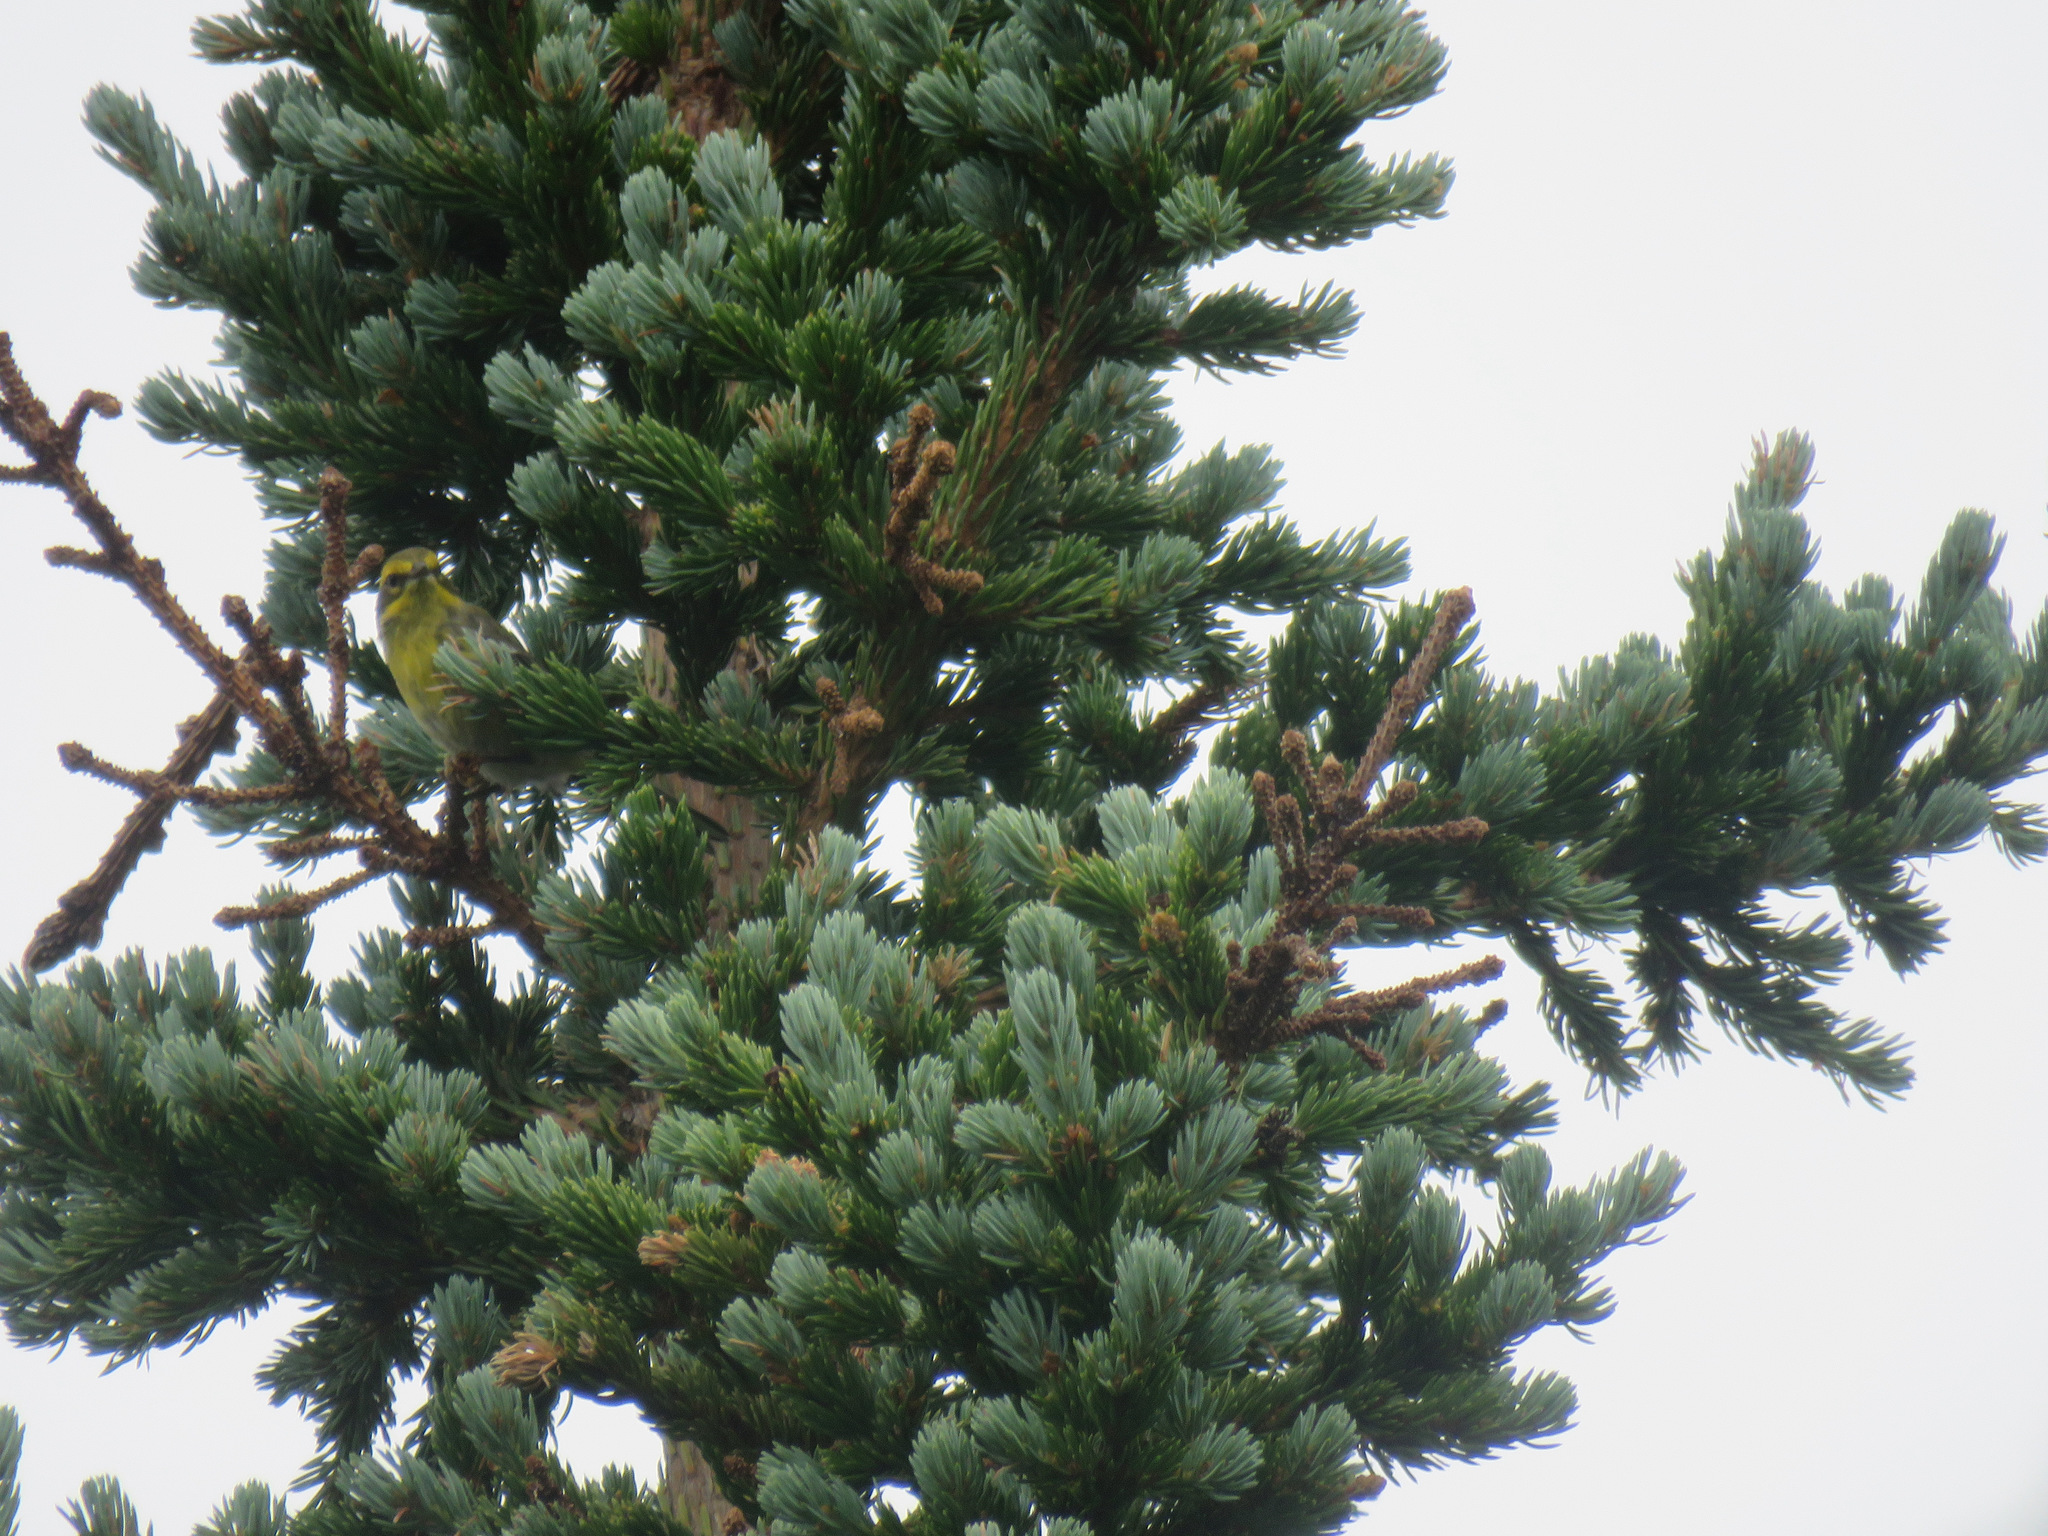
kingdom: Animalia
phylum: Chordata
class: Aves
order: Passeriformes
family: Parulidae
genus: Setophaga
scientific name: Setophaga townsendi
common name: Townsend's warbler
